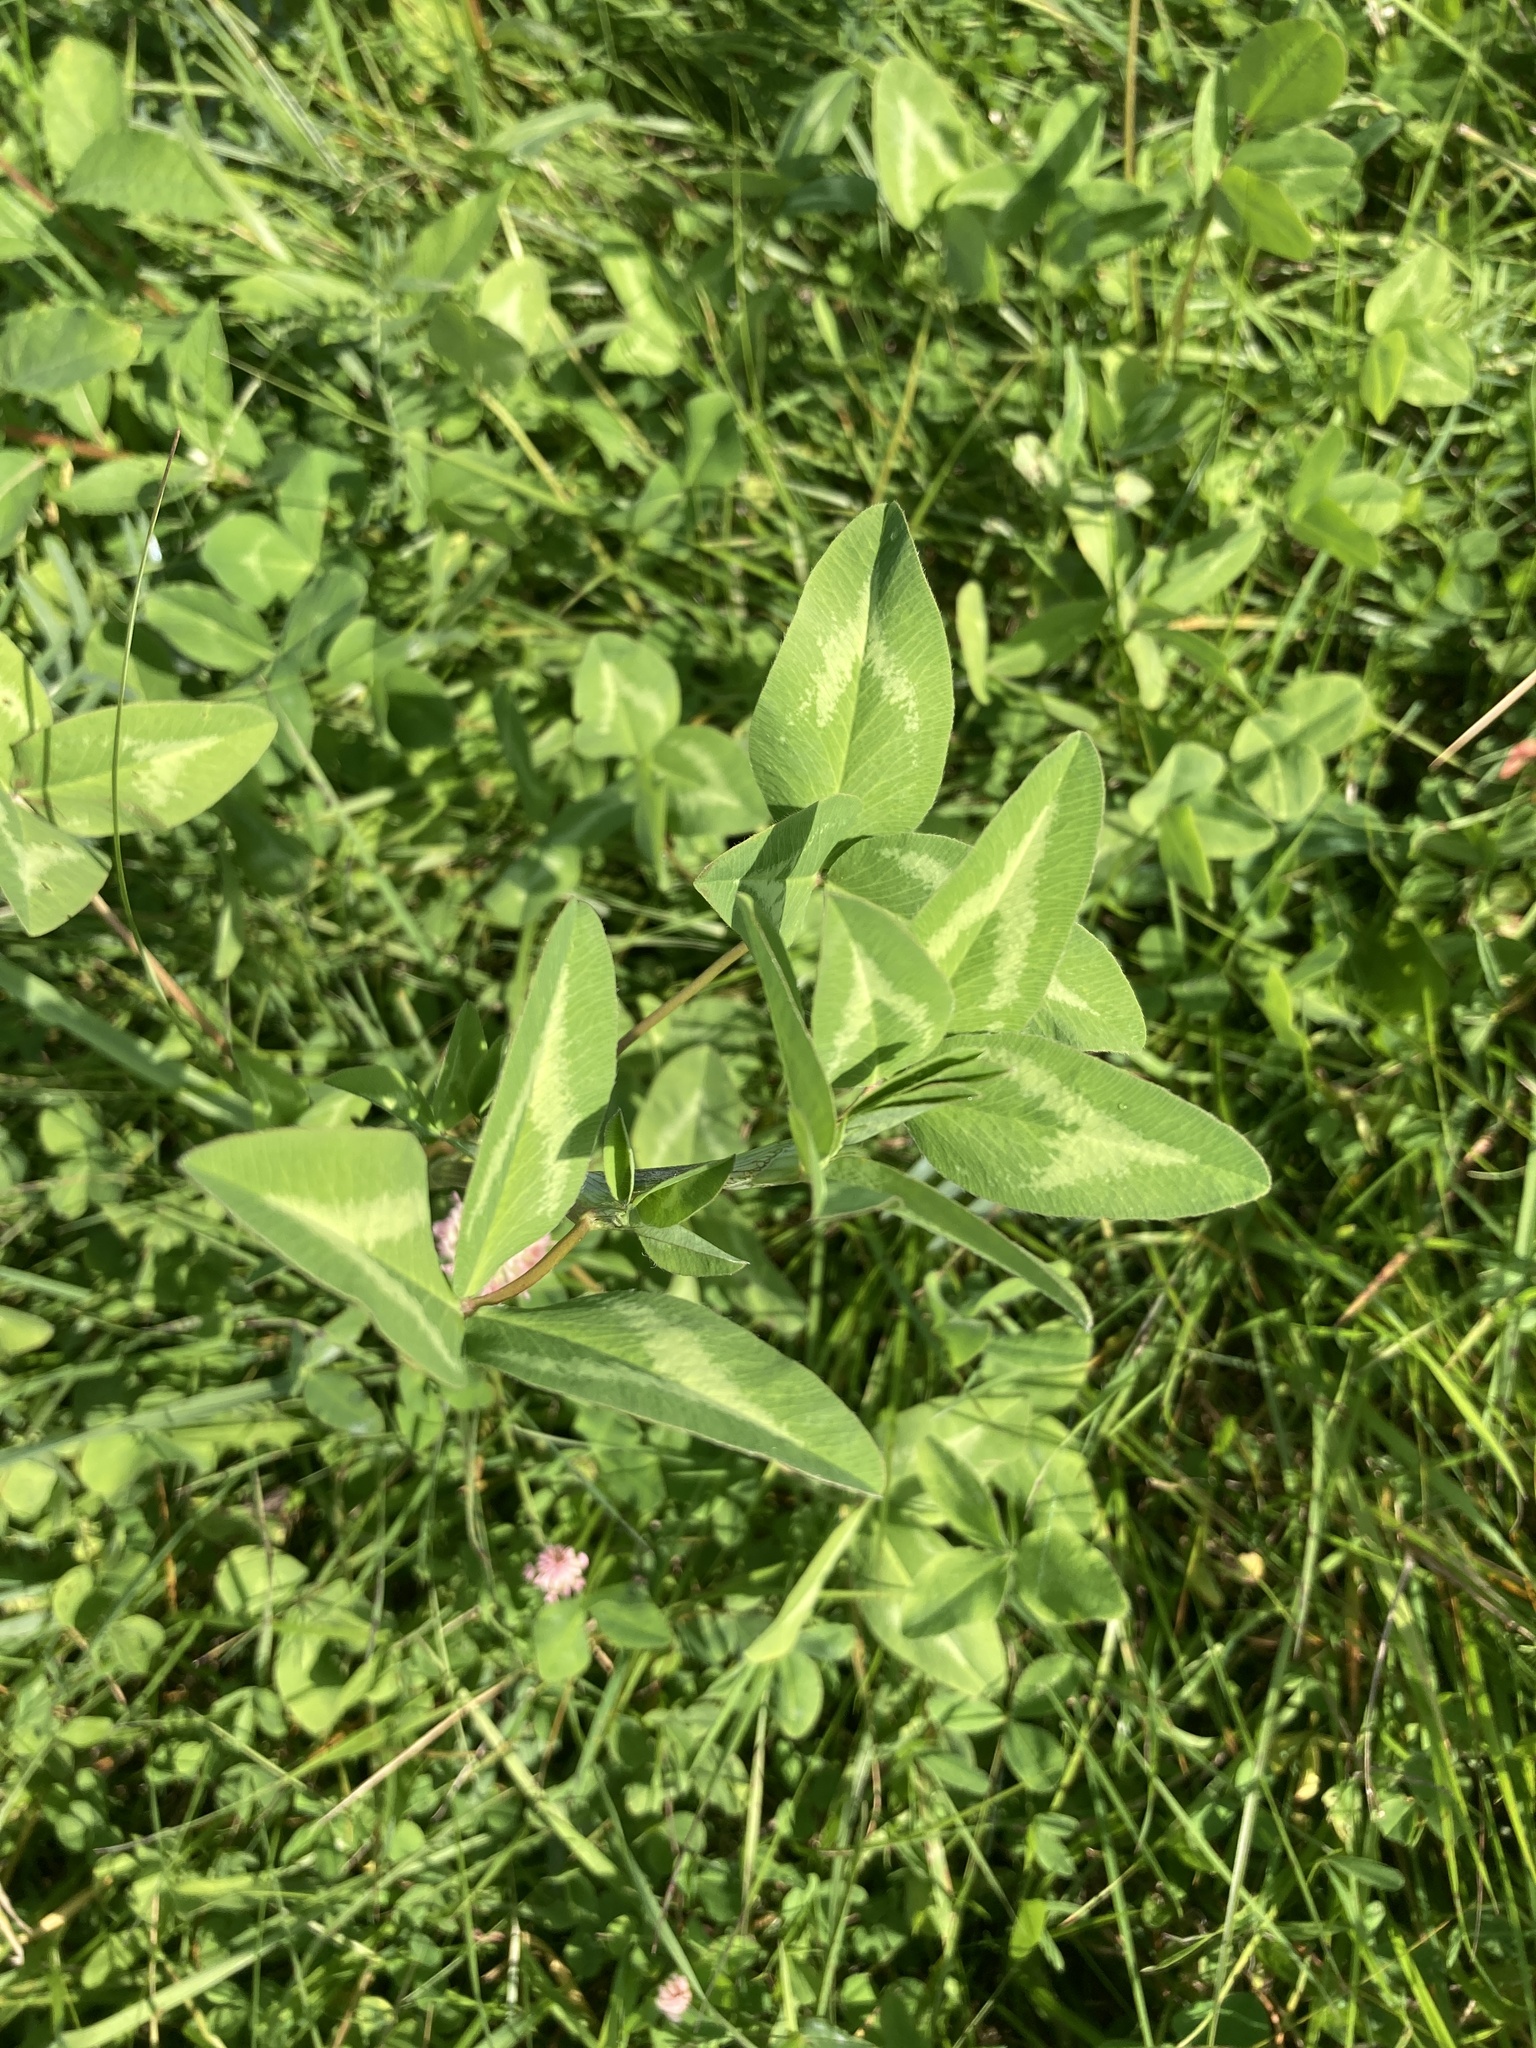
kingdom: Plantae
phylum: Tracheophyta
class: Magnoliopsida
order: Fabales
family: Fabaceae
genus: Trifolium
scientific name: Trifolium pratense
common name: Red clover
